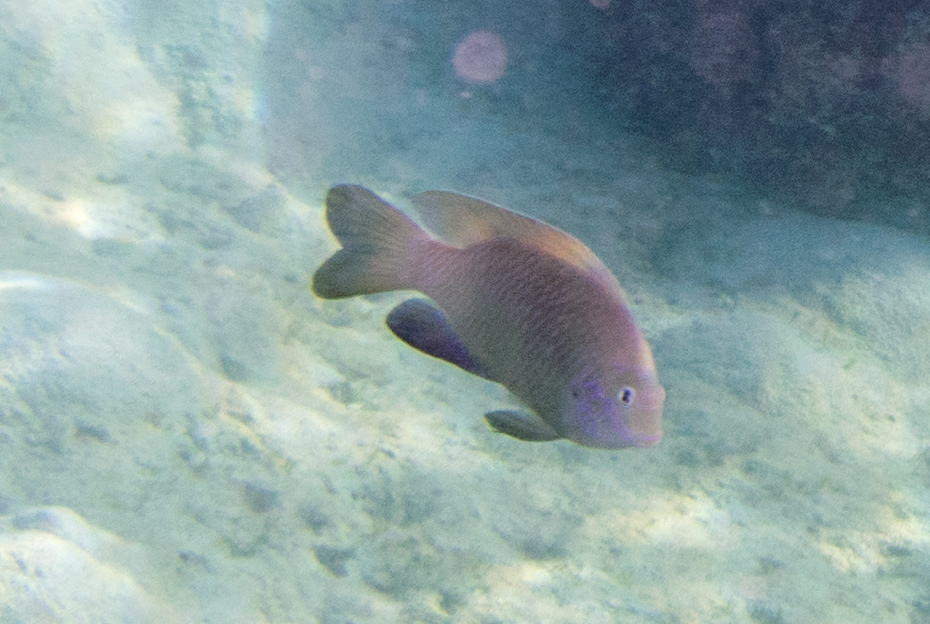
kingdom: Animalia
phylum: Chordata
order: Perciformes
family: Pomacentridae
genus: Dischistodus
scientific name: Dischistodus perspicillatus
